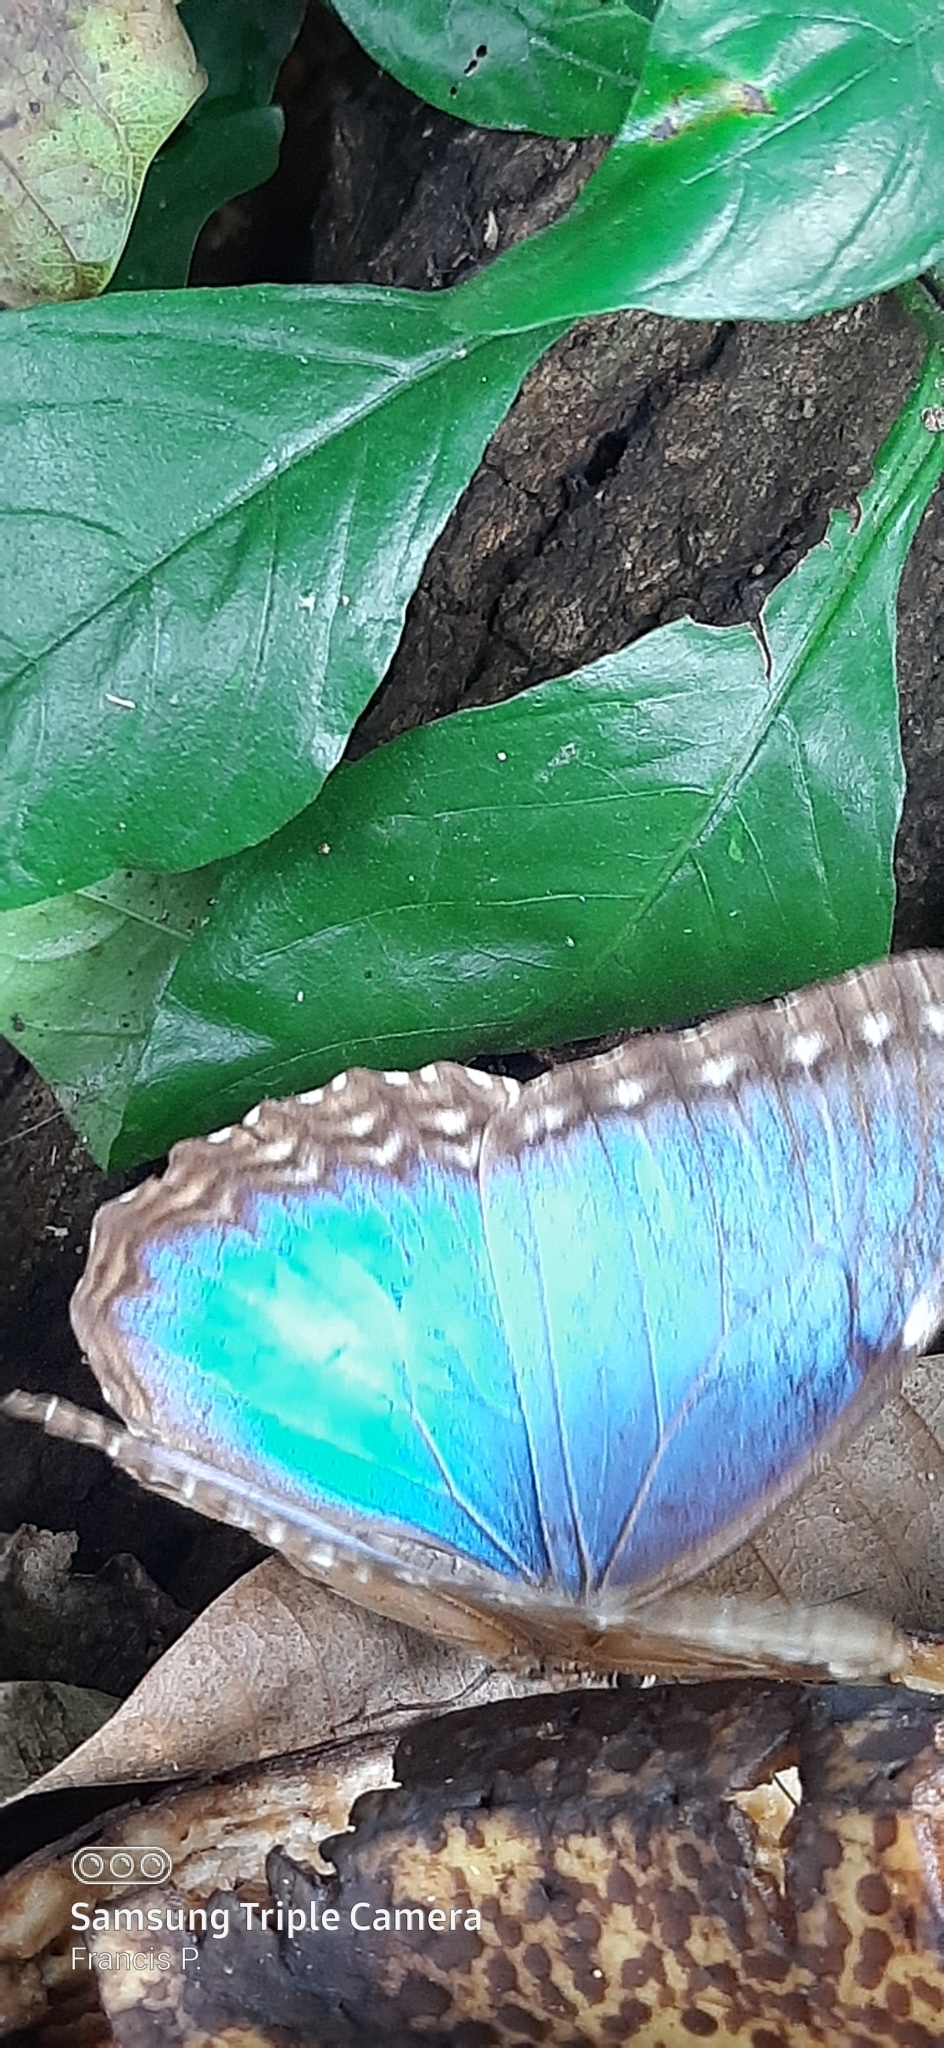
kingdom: Animalia
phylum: Arthropoda
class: Insecta
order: Lepidoptera
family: Nymphalidae
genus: Morpho
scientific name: Morpho helenor
